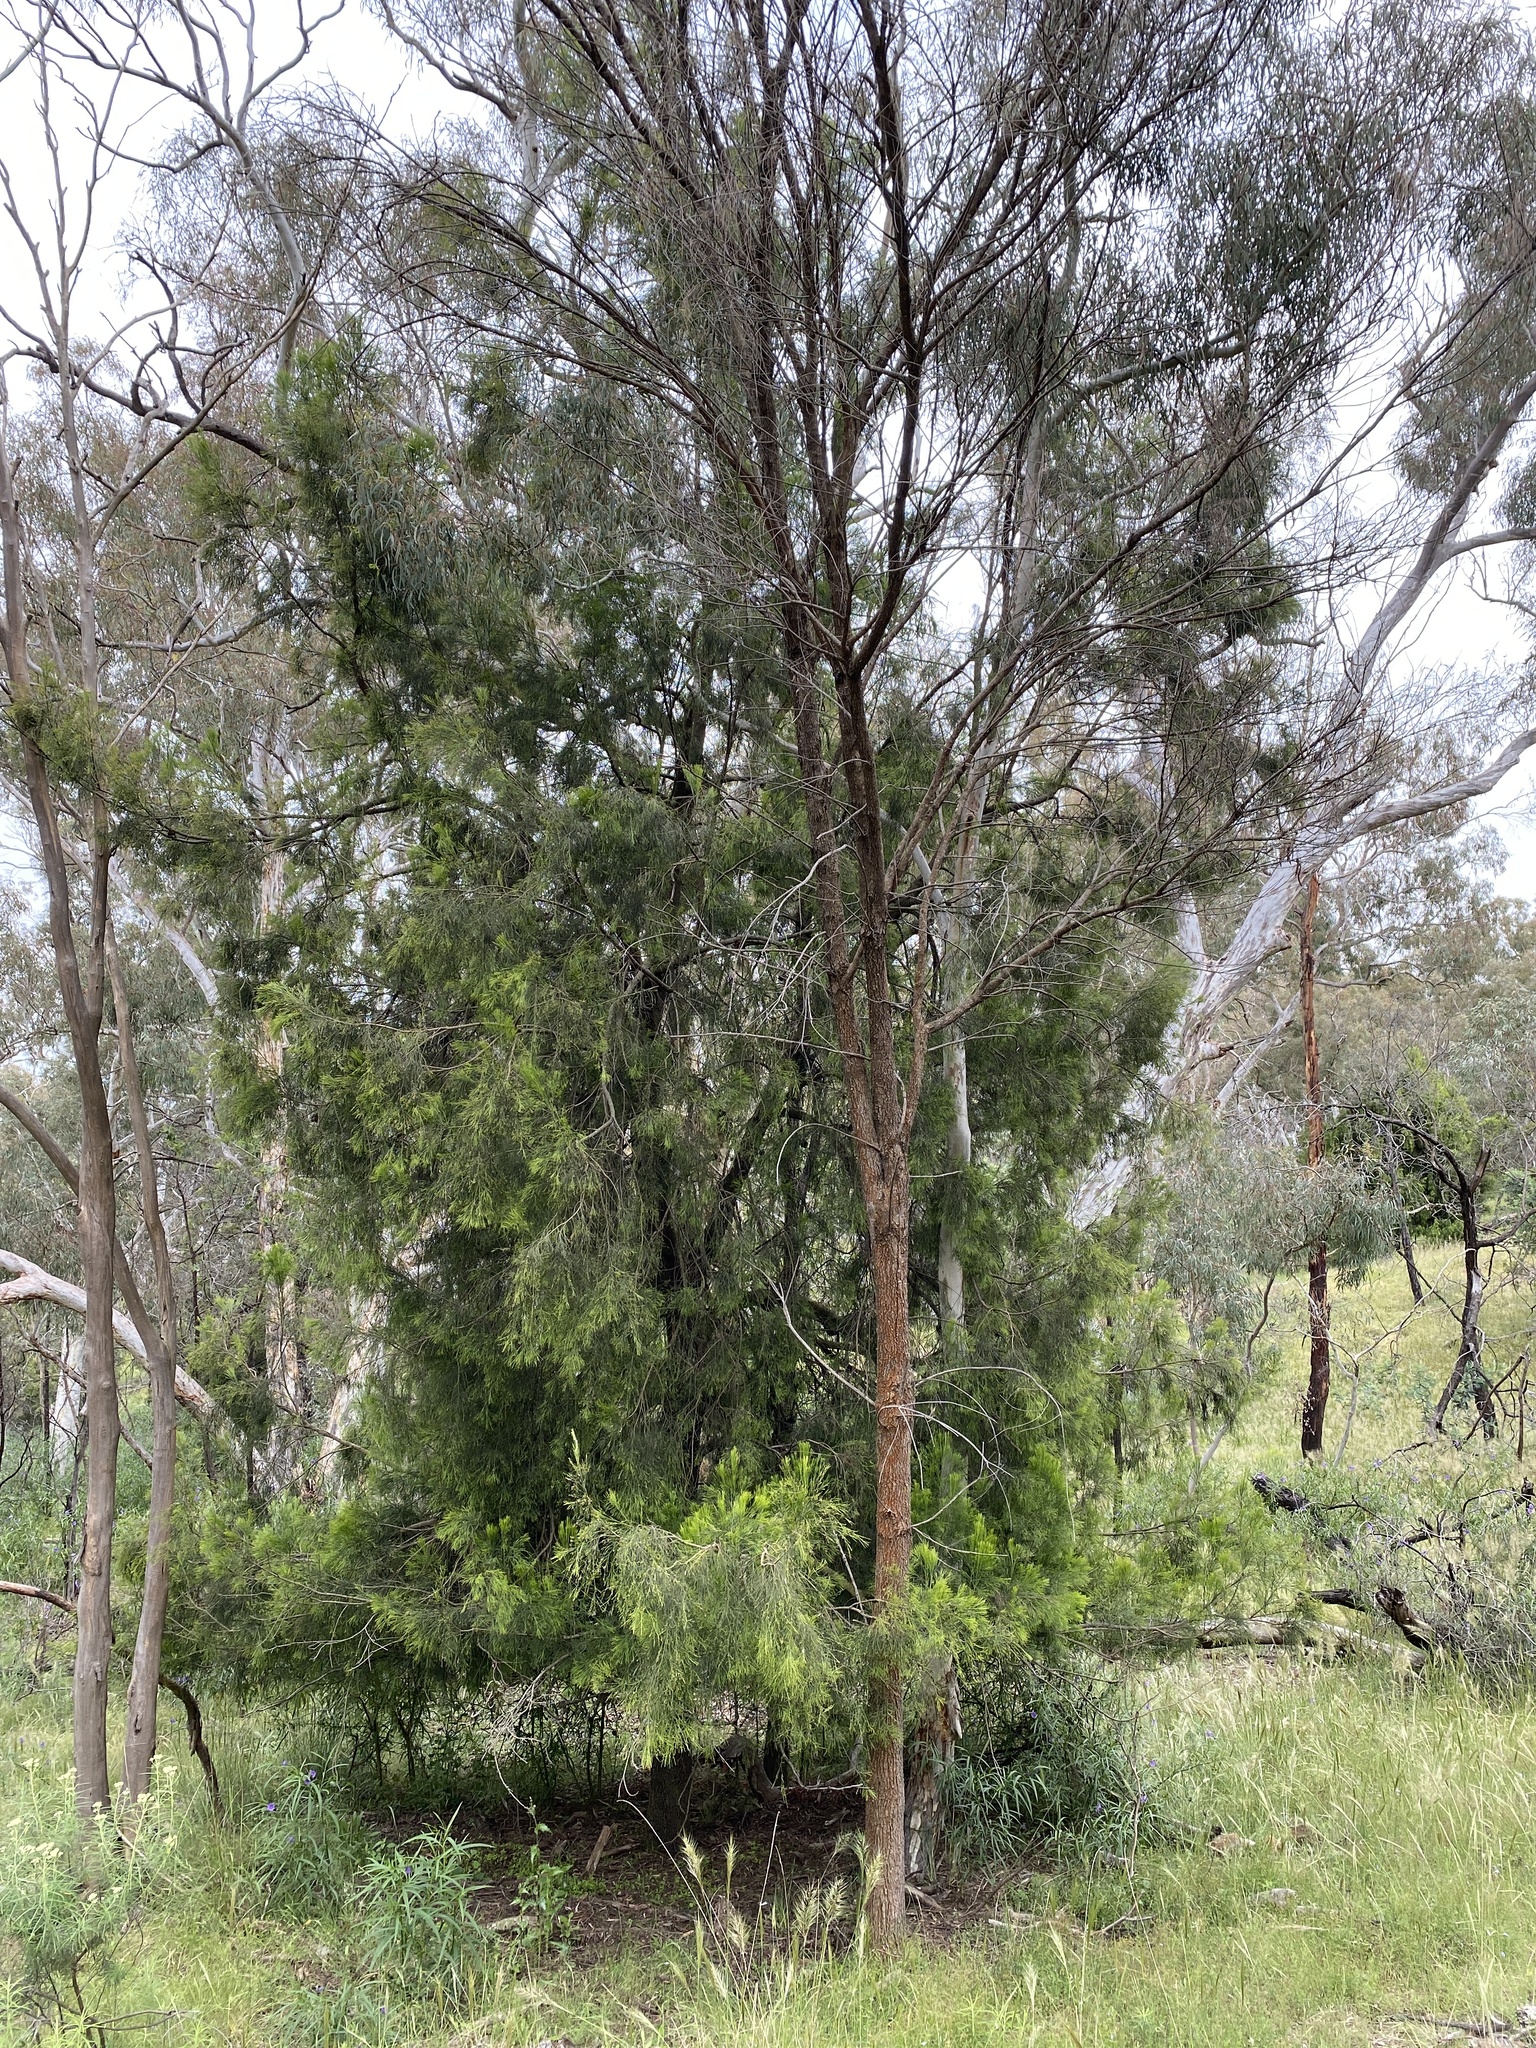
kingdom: Plantae
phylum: Tracheophyta
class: Magnoliopsida
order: Santalales
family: Santalaceae
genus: Exocarpos
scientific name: Exocarpos cupressiformis
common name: Cherry ballart
